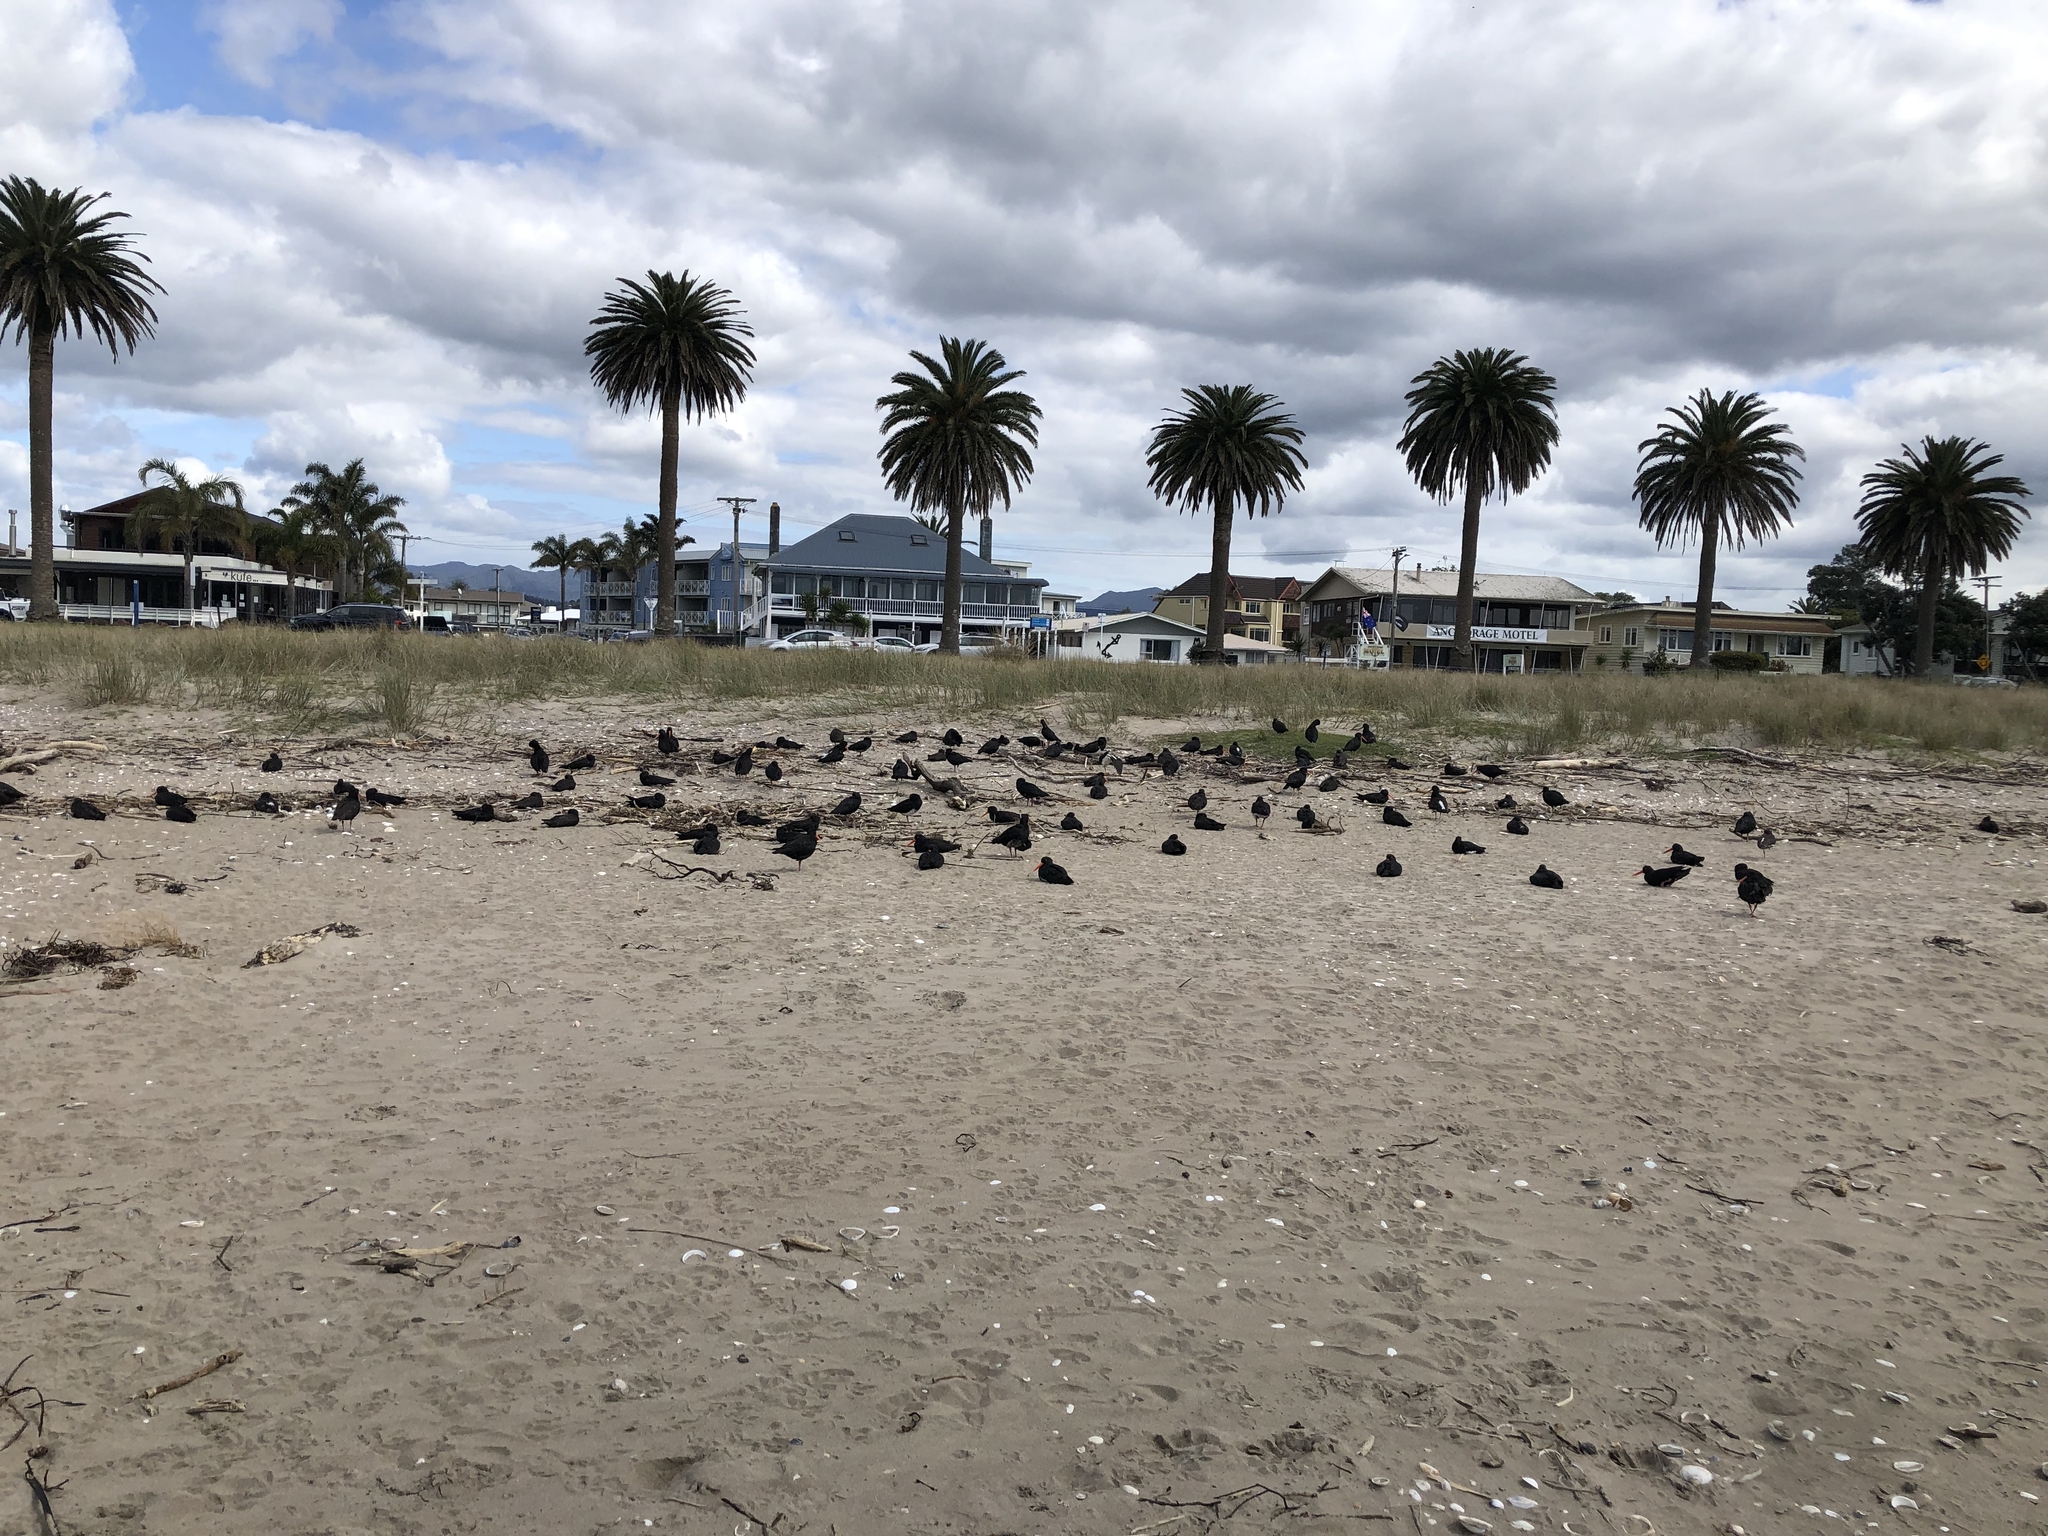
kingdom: Animalia
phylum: Chordata
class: Aves
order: Charadriiformes
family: Haematopodidae
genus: Haematopus
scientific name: Haematopus unicolor
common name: Variable oystercatcher
